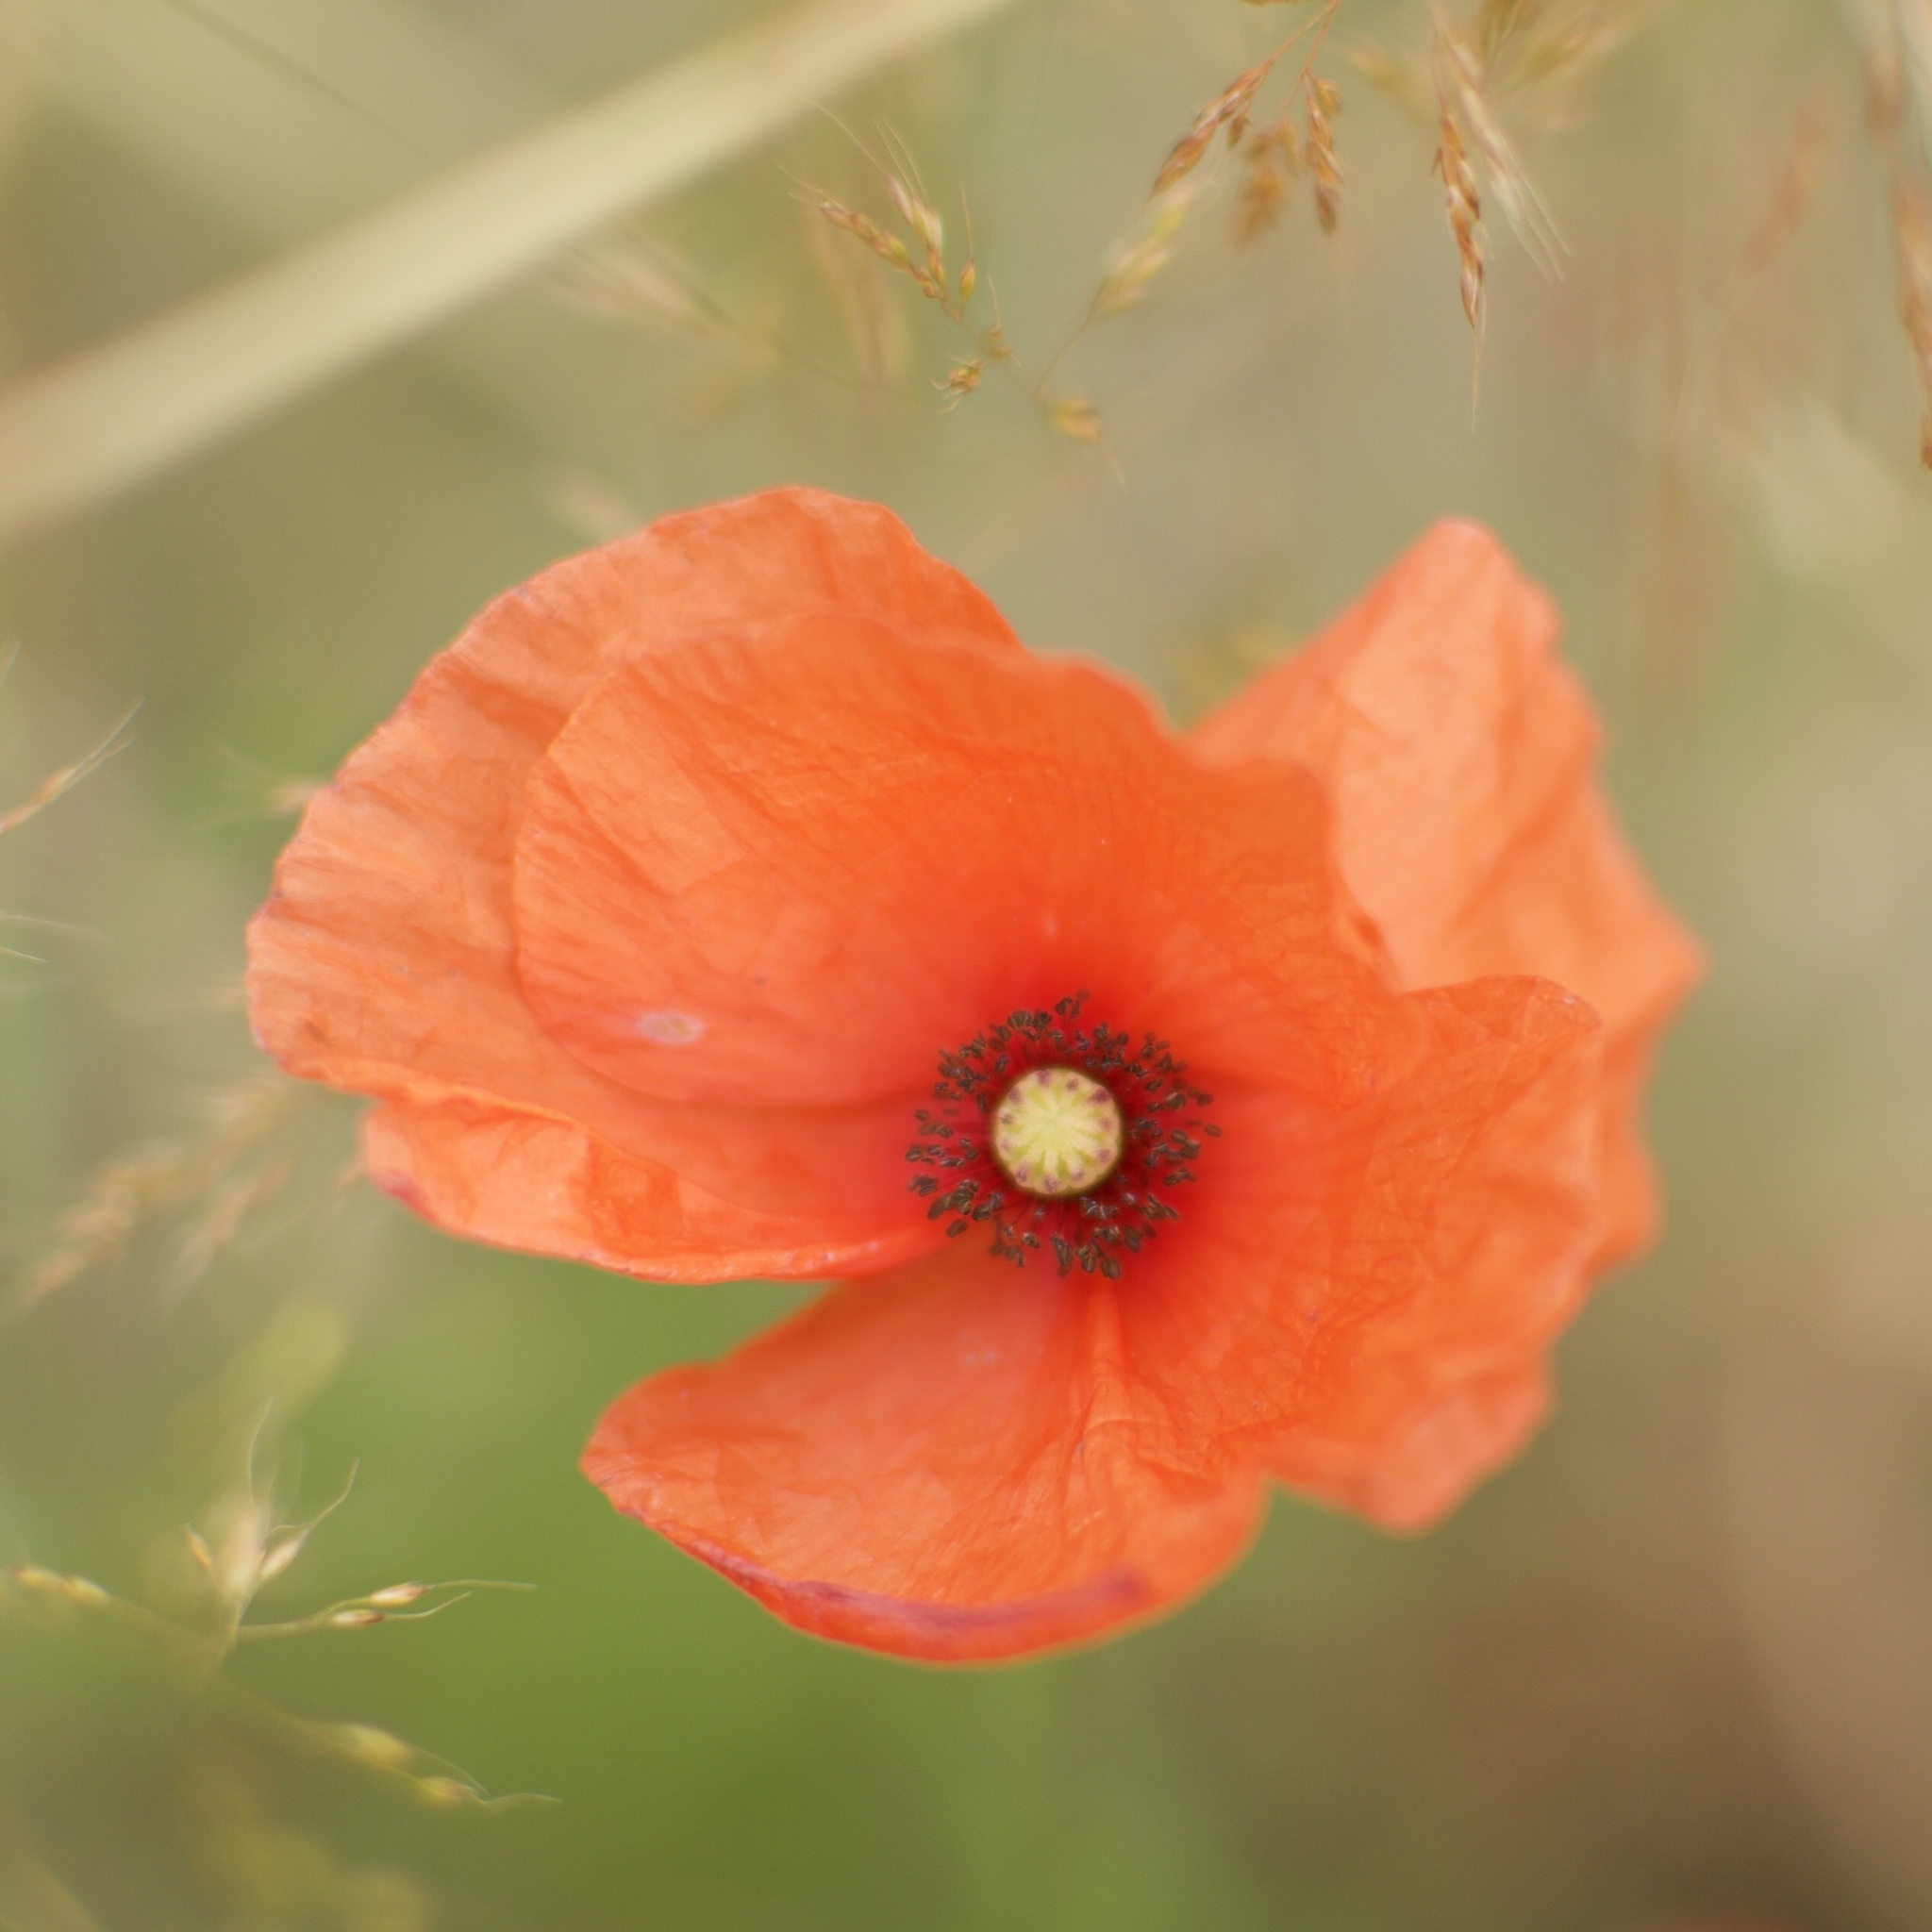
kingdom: Plantae
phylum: Tracheophyta
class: Magnoliopsida
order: Ranunculales
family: Papaveraceae
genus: Papaver
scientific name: Papaver rhoeas
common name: Corn poppy
